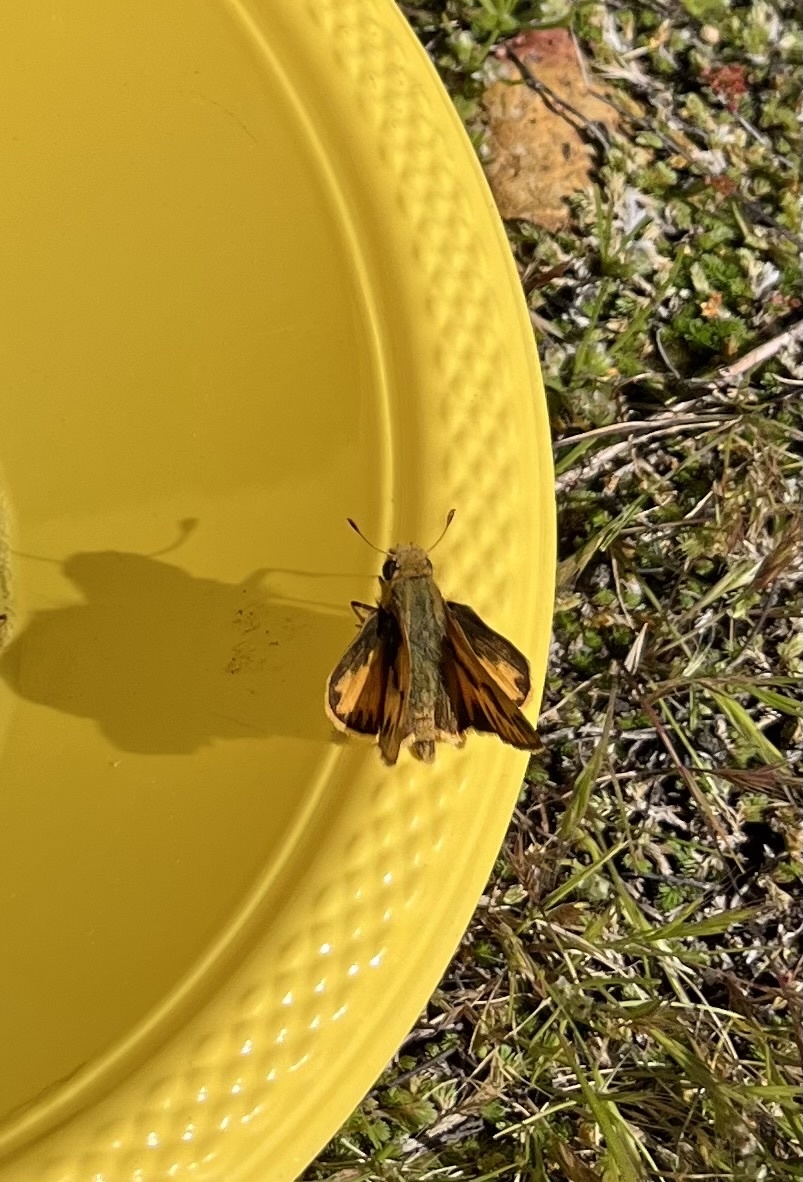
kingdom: Animalia
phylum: Arthropoda
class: Insecta
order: Lepidoptera
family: Hesperiidae
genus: Hylephila
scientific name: Hylephila phyleus
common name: Fiery skipper
